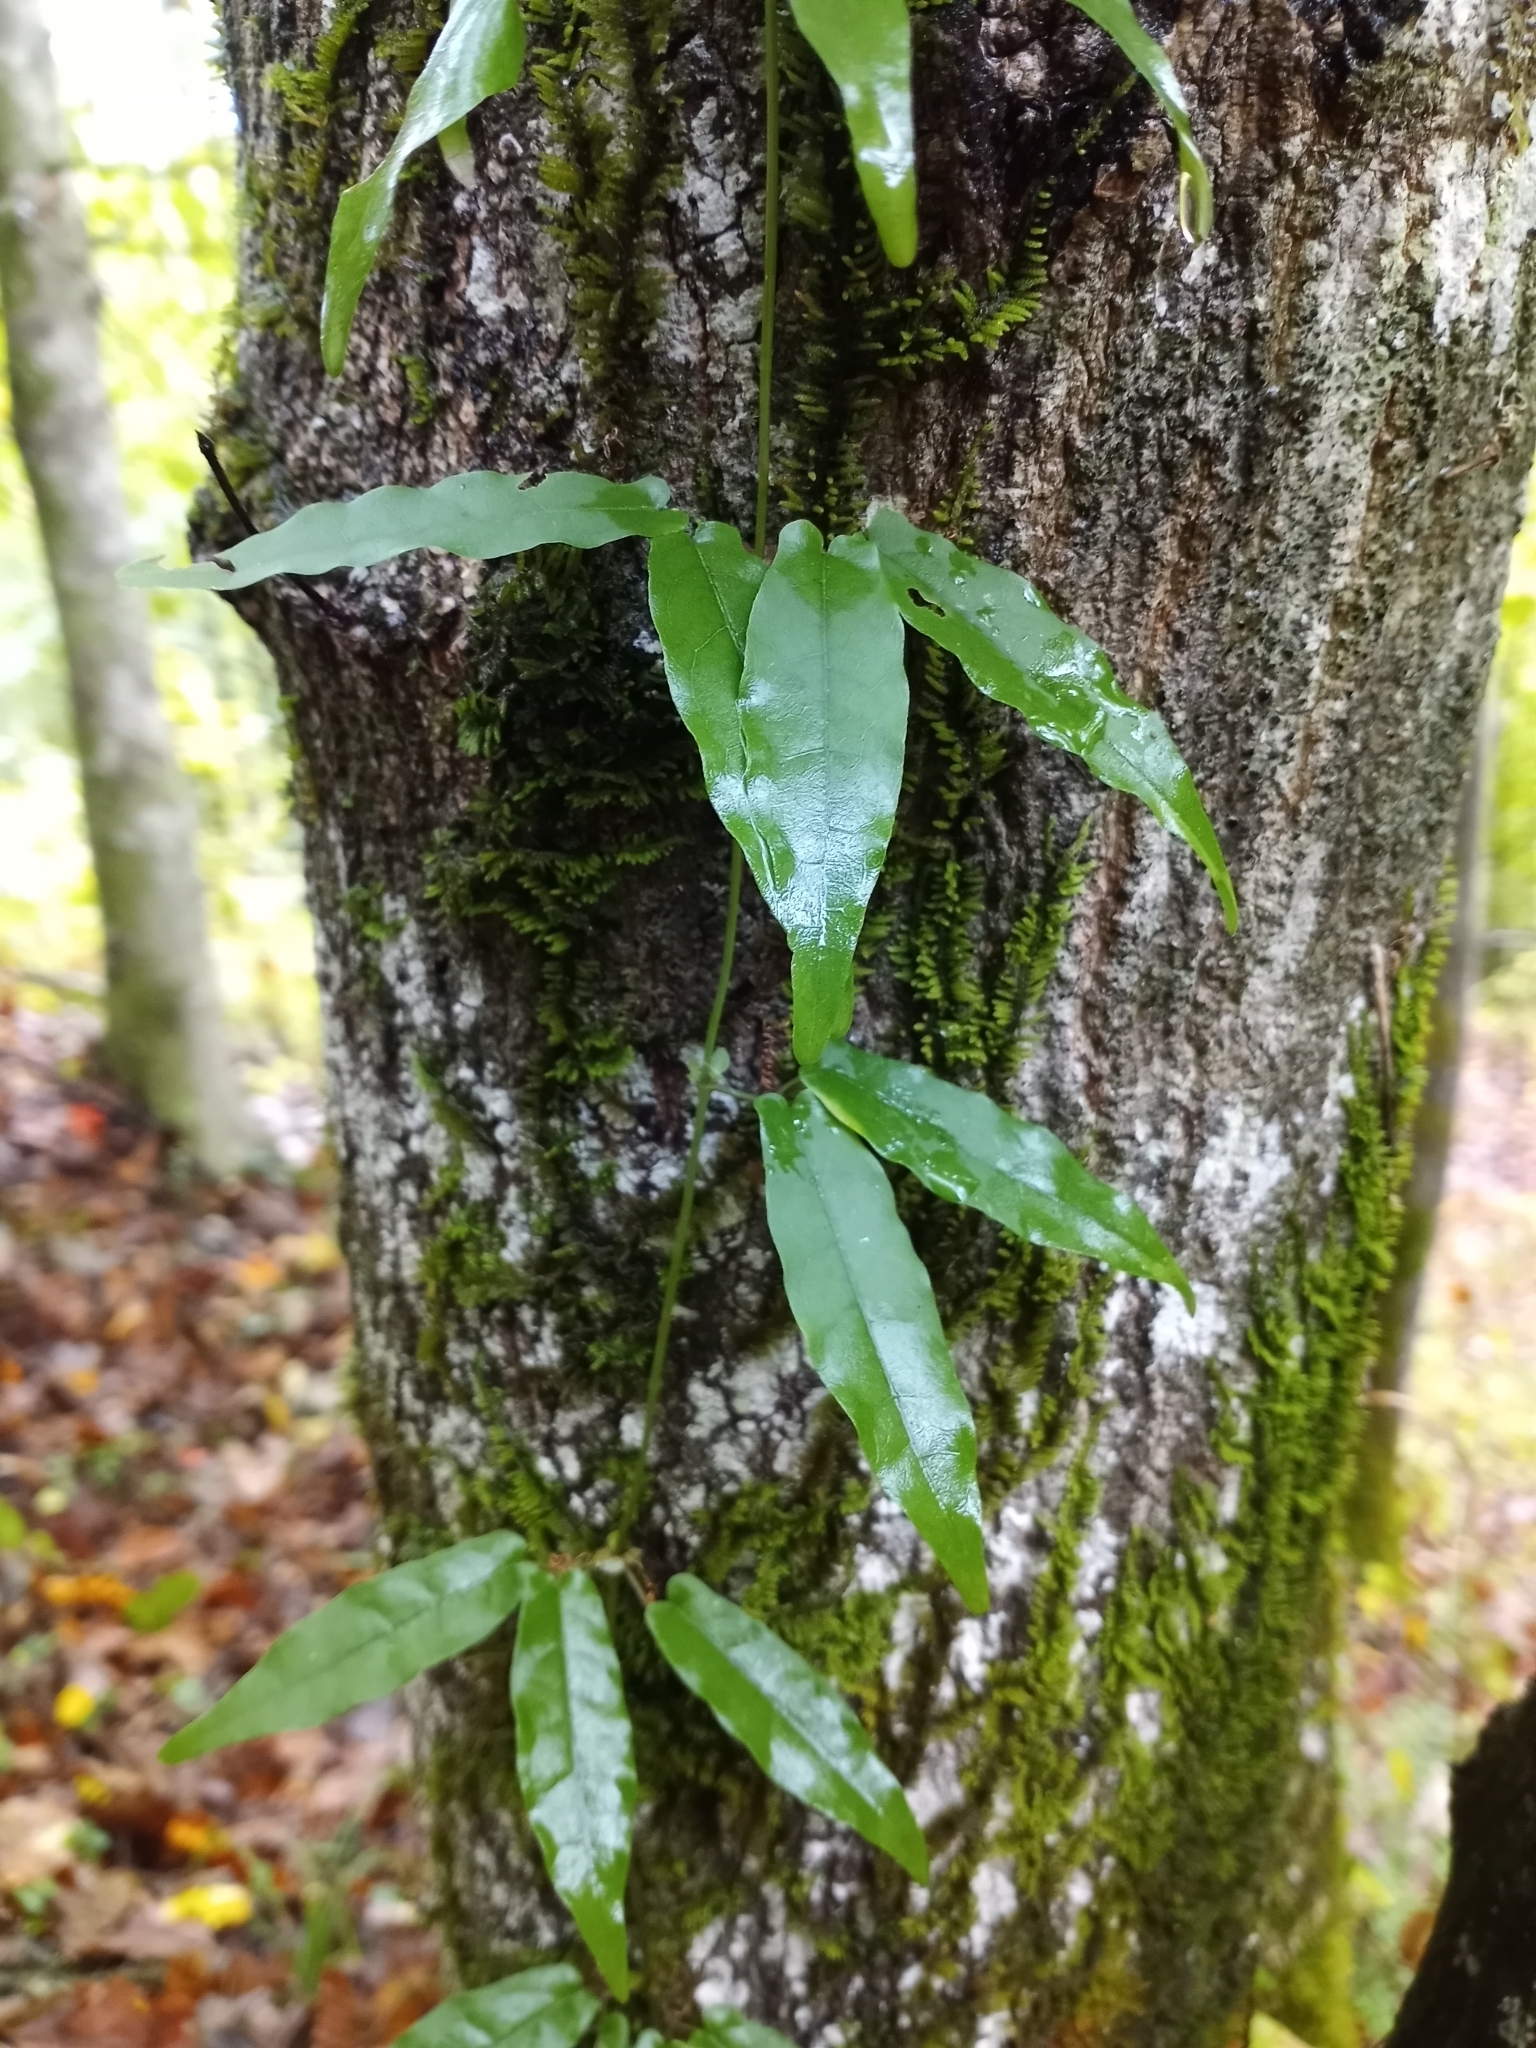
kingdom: Plantae
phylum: Tracheophyta
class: Magnoliopsida
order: Lamiales
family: Bignoniaceae
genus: Bignonia
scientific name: Bignonia capreolata
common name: Crossvine
